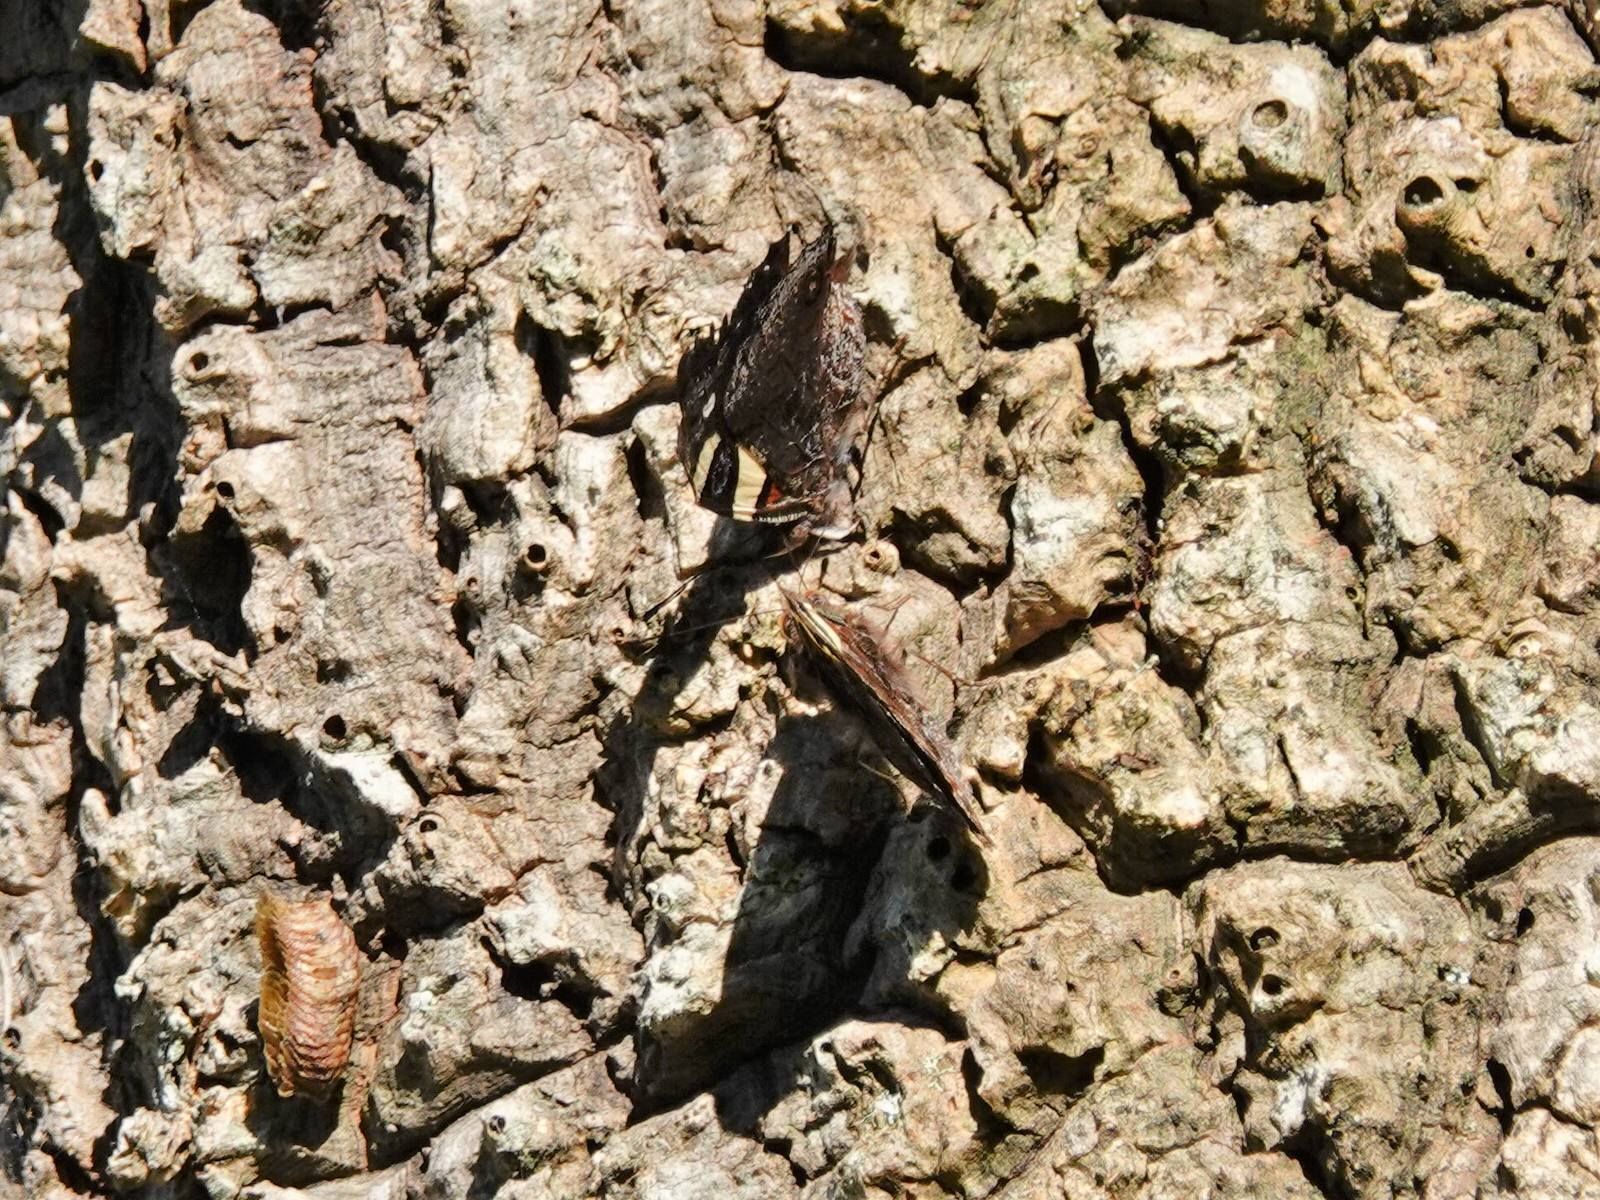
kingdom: Animalia
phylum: Arthropoda
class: Insecta
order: Lepidoptera
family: Nymphalidae
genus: Vanessa
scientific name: Vanessa itea
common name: Yellow admiral
